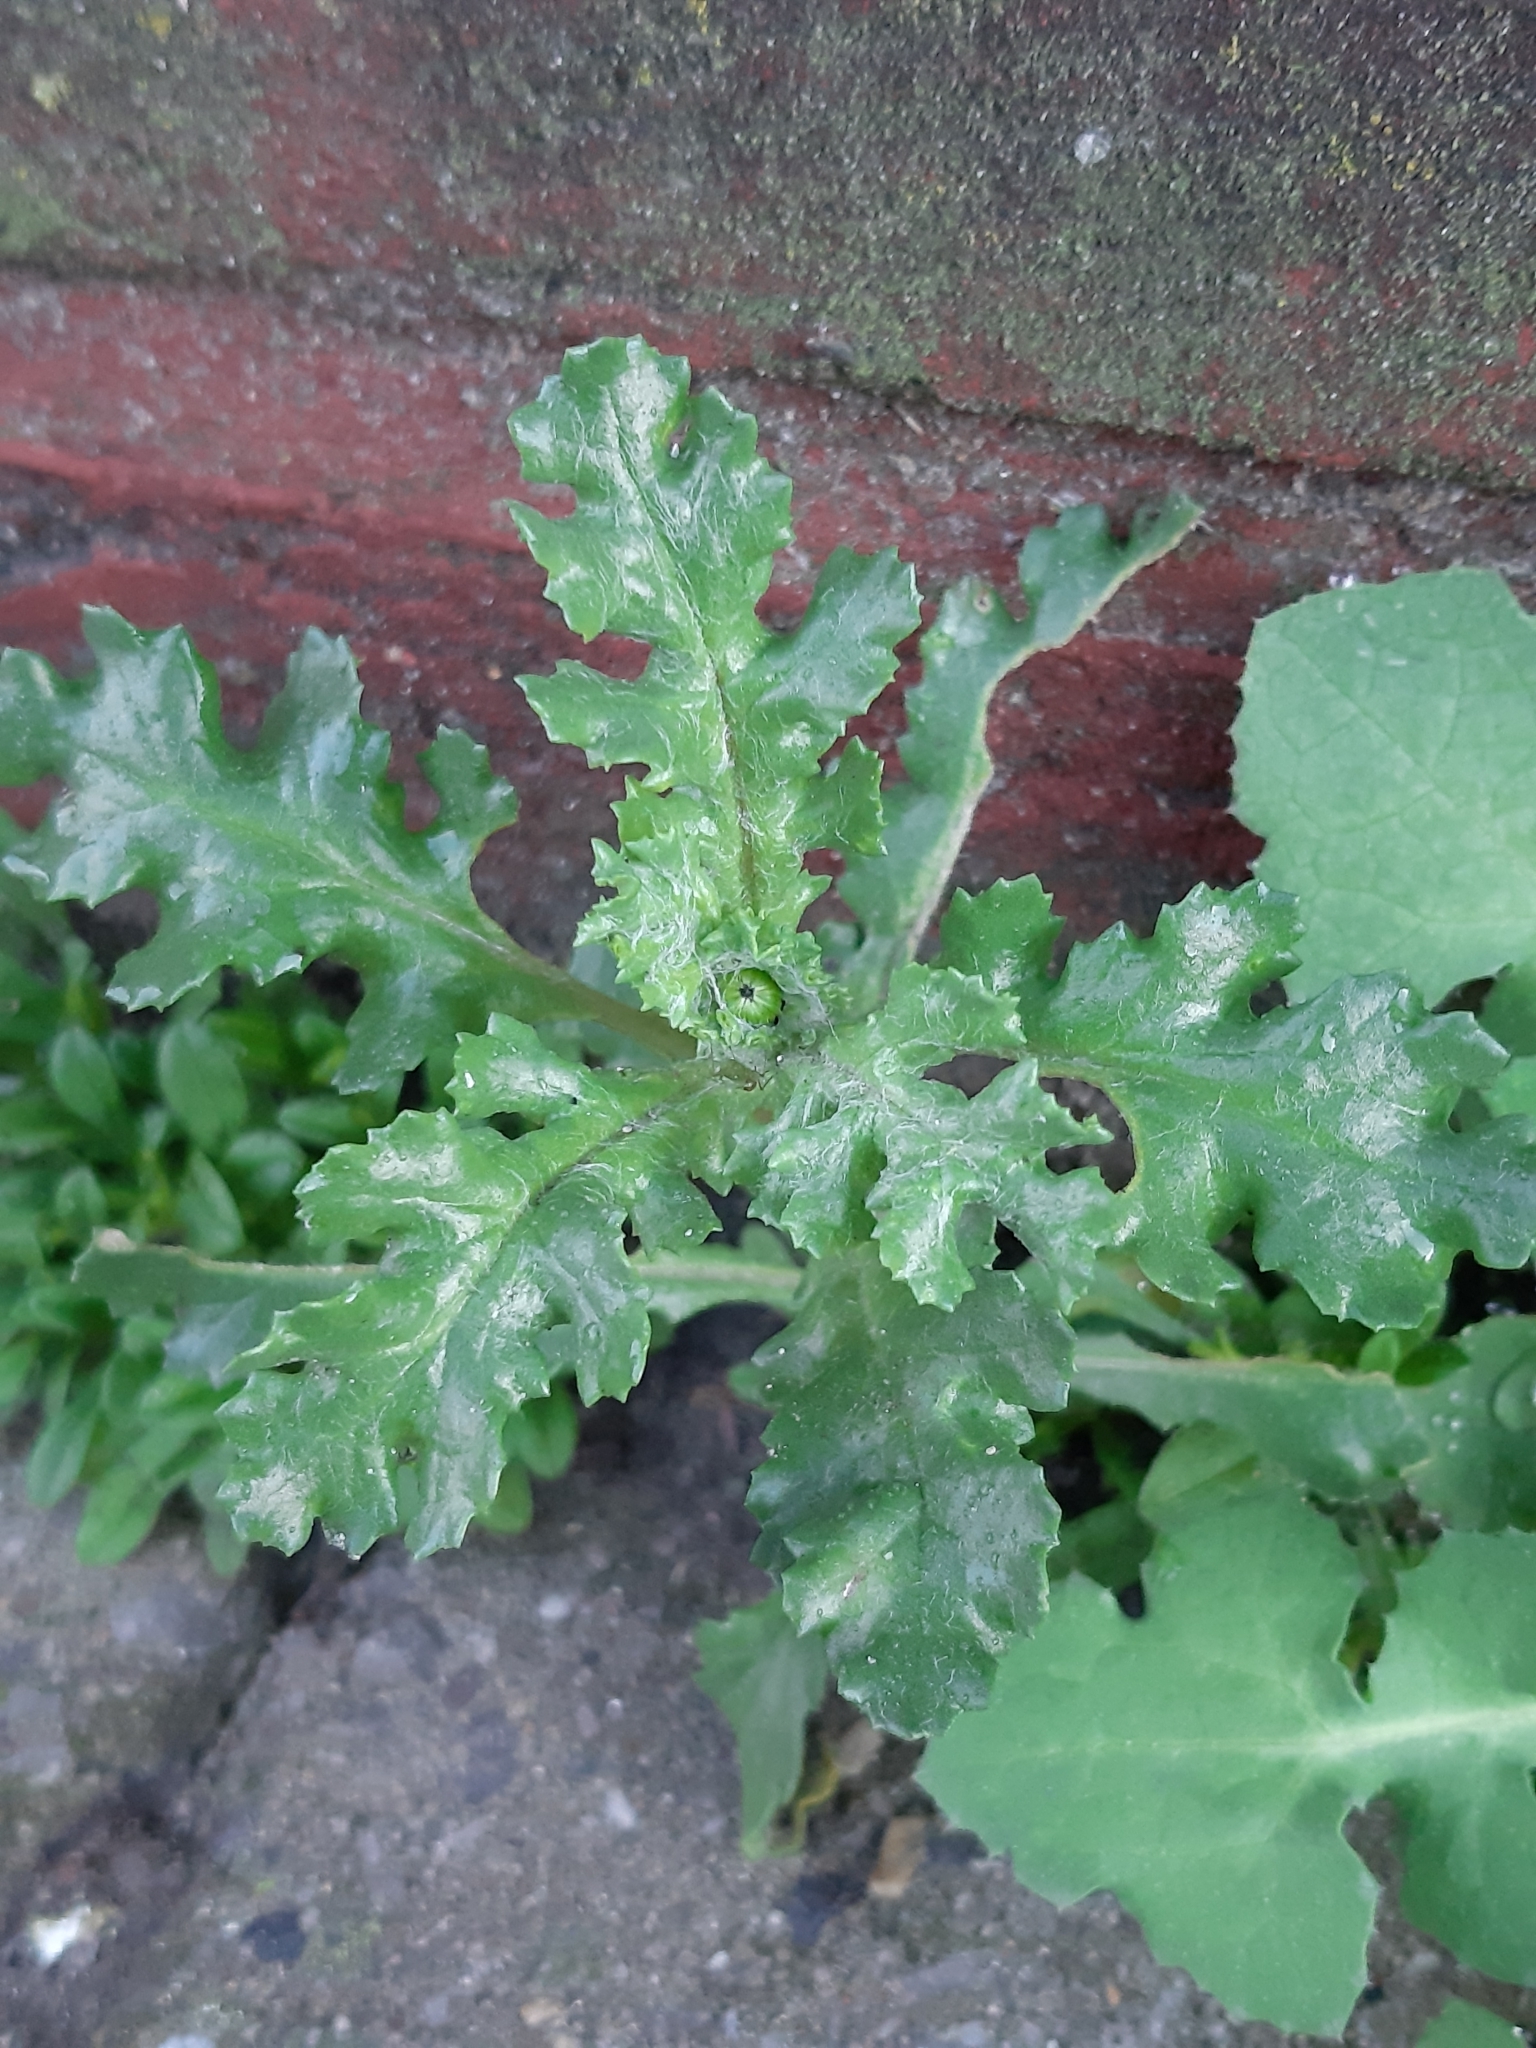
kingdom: Plantae
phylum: Tracheophyta
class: Magnoliopsida
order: Asterales
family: Asteraceae
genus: Senecio
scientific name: Senecio vulgaris
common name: Old-man-in-the-spring
